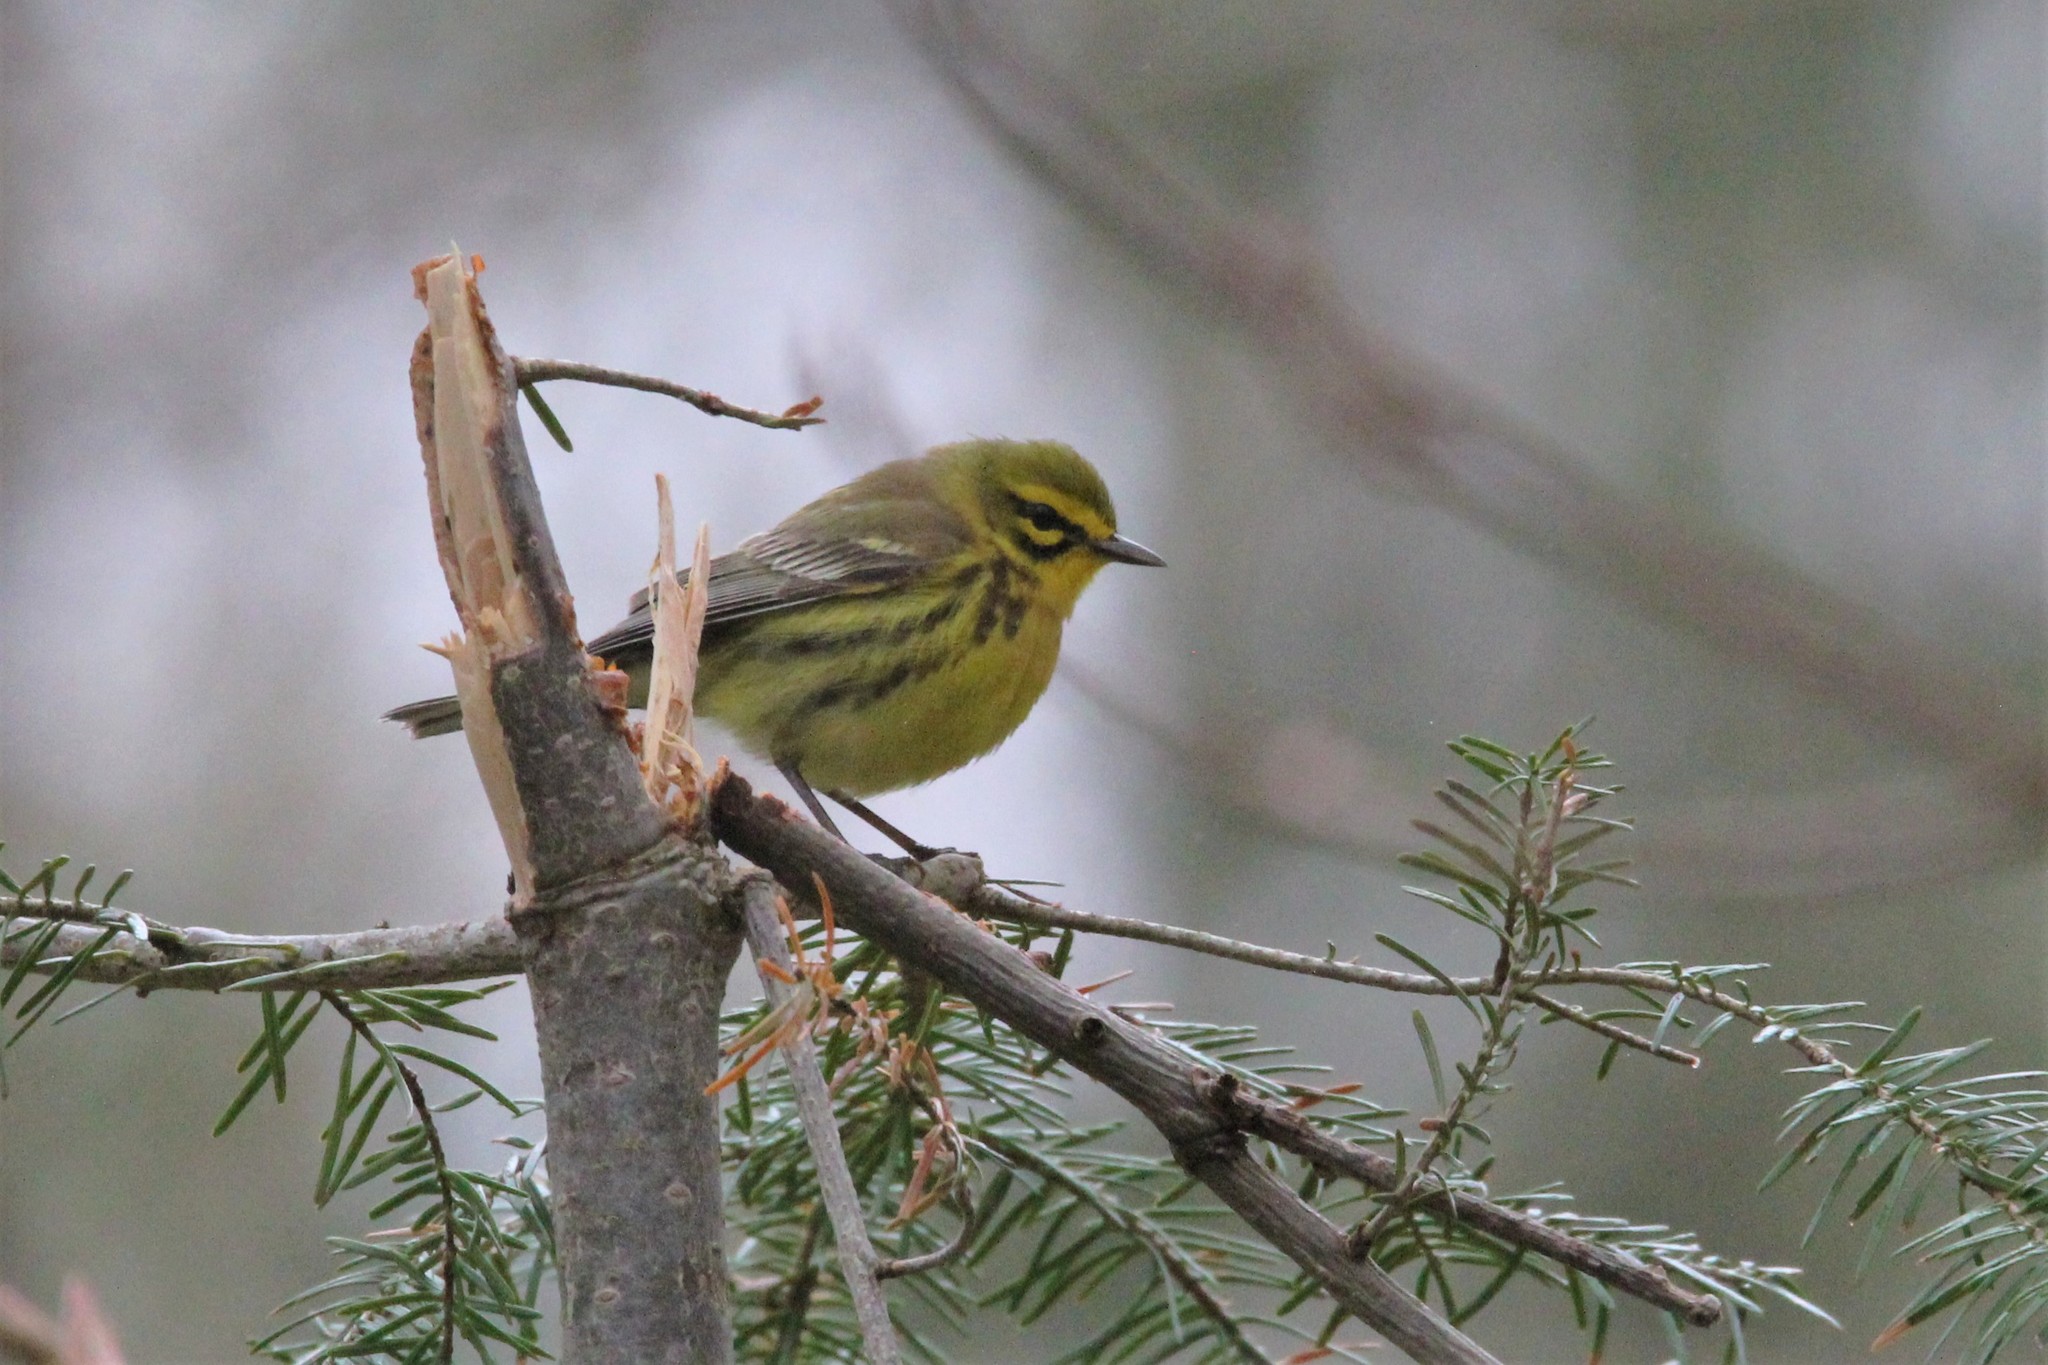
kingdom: Animalia
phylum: Chordata
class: Aves
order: Passeriformes
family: Parulidae
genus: Setophaga
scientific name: Setophaga discolor
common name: Prairie warbler
